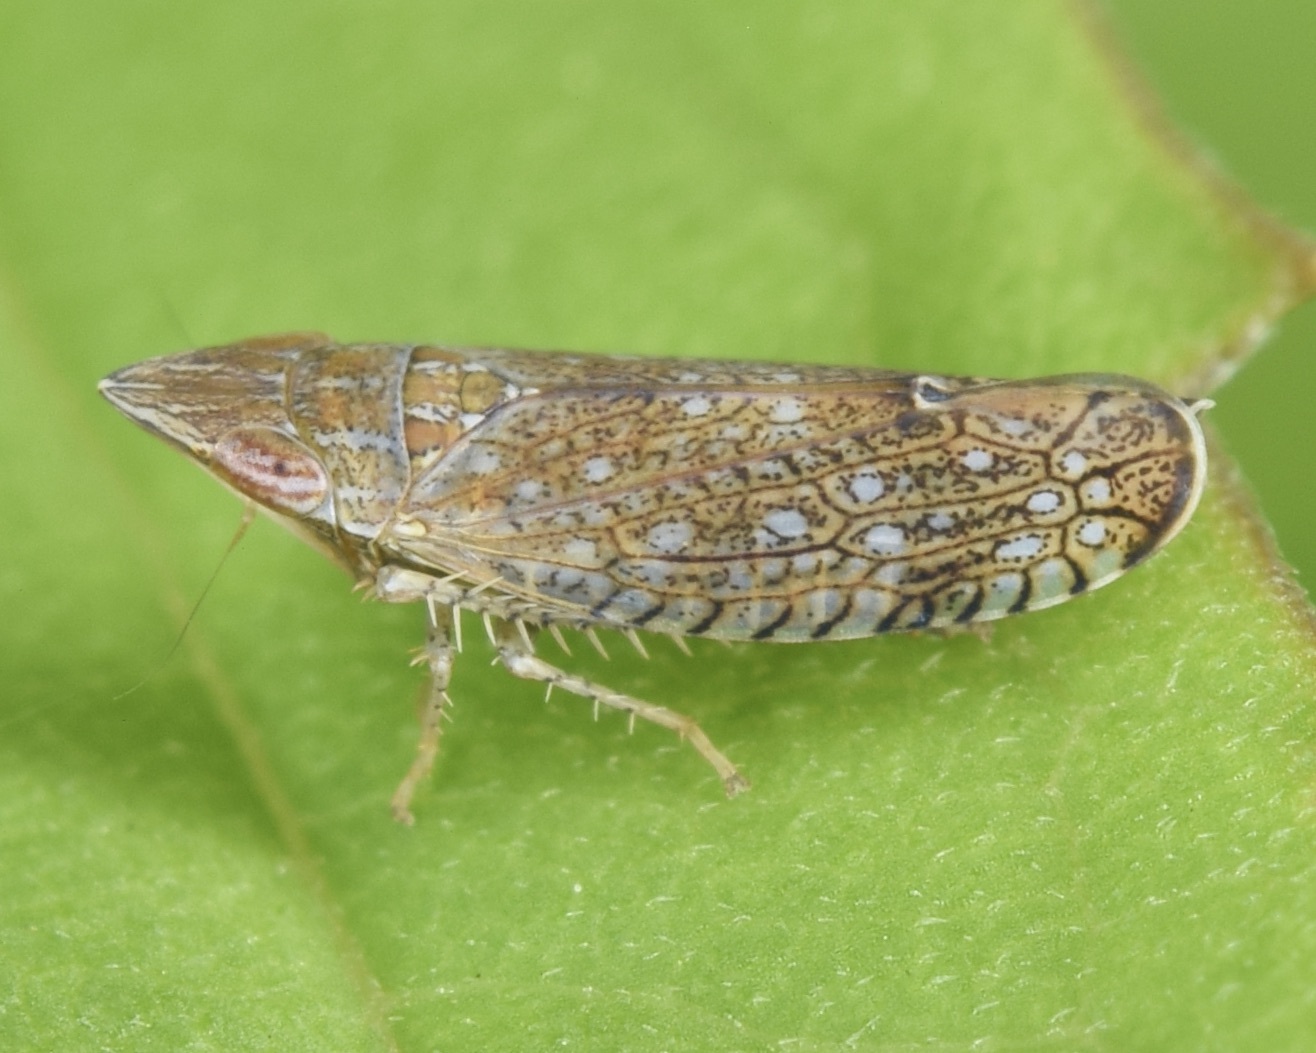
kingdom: Animalia
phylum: Arthropoda
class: Insecta
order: Hemiptera
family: Cicadellidae
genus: Scaphytopius
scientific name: Scaphytopius acutus
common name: The sharp-nosed leafhopper
